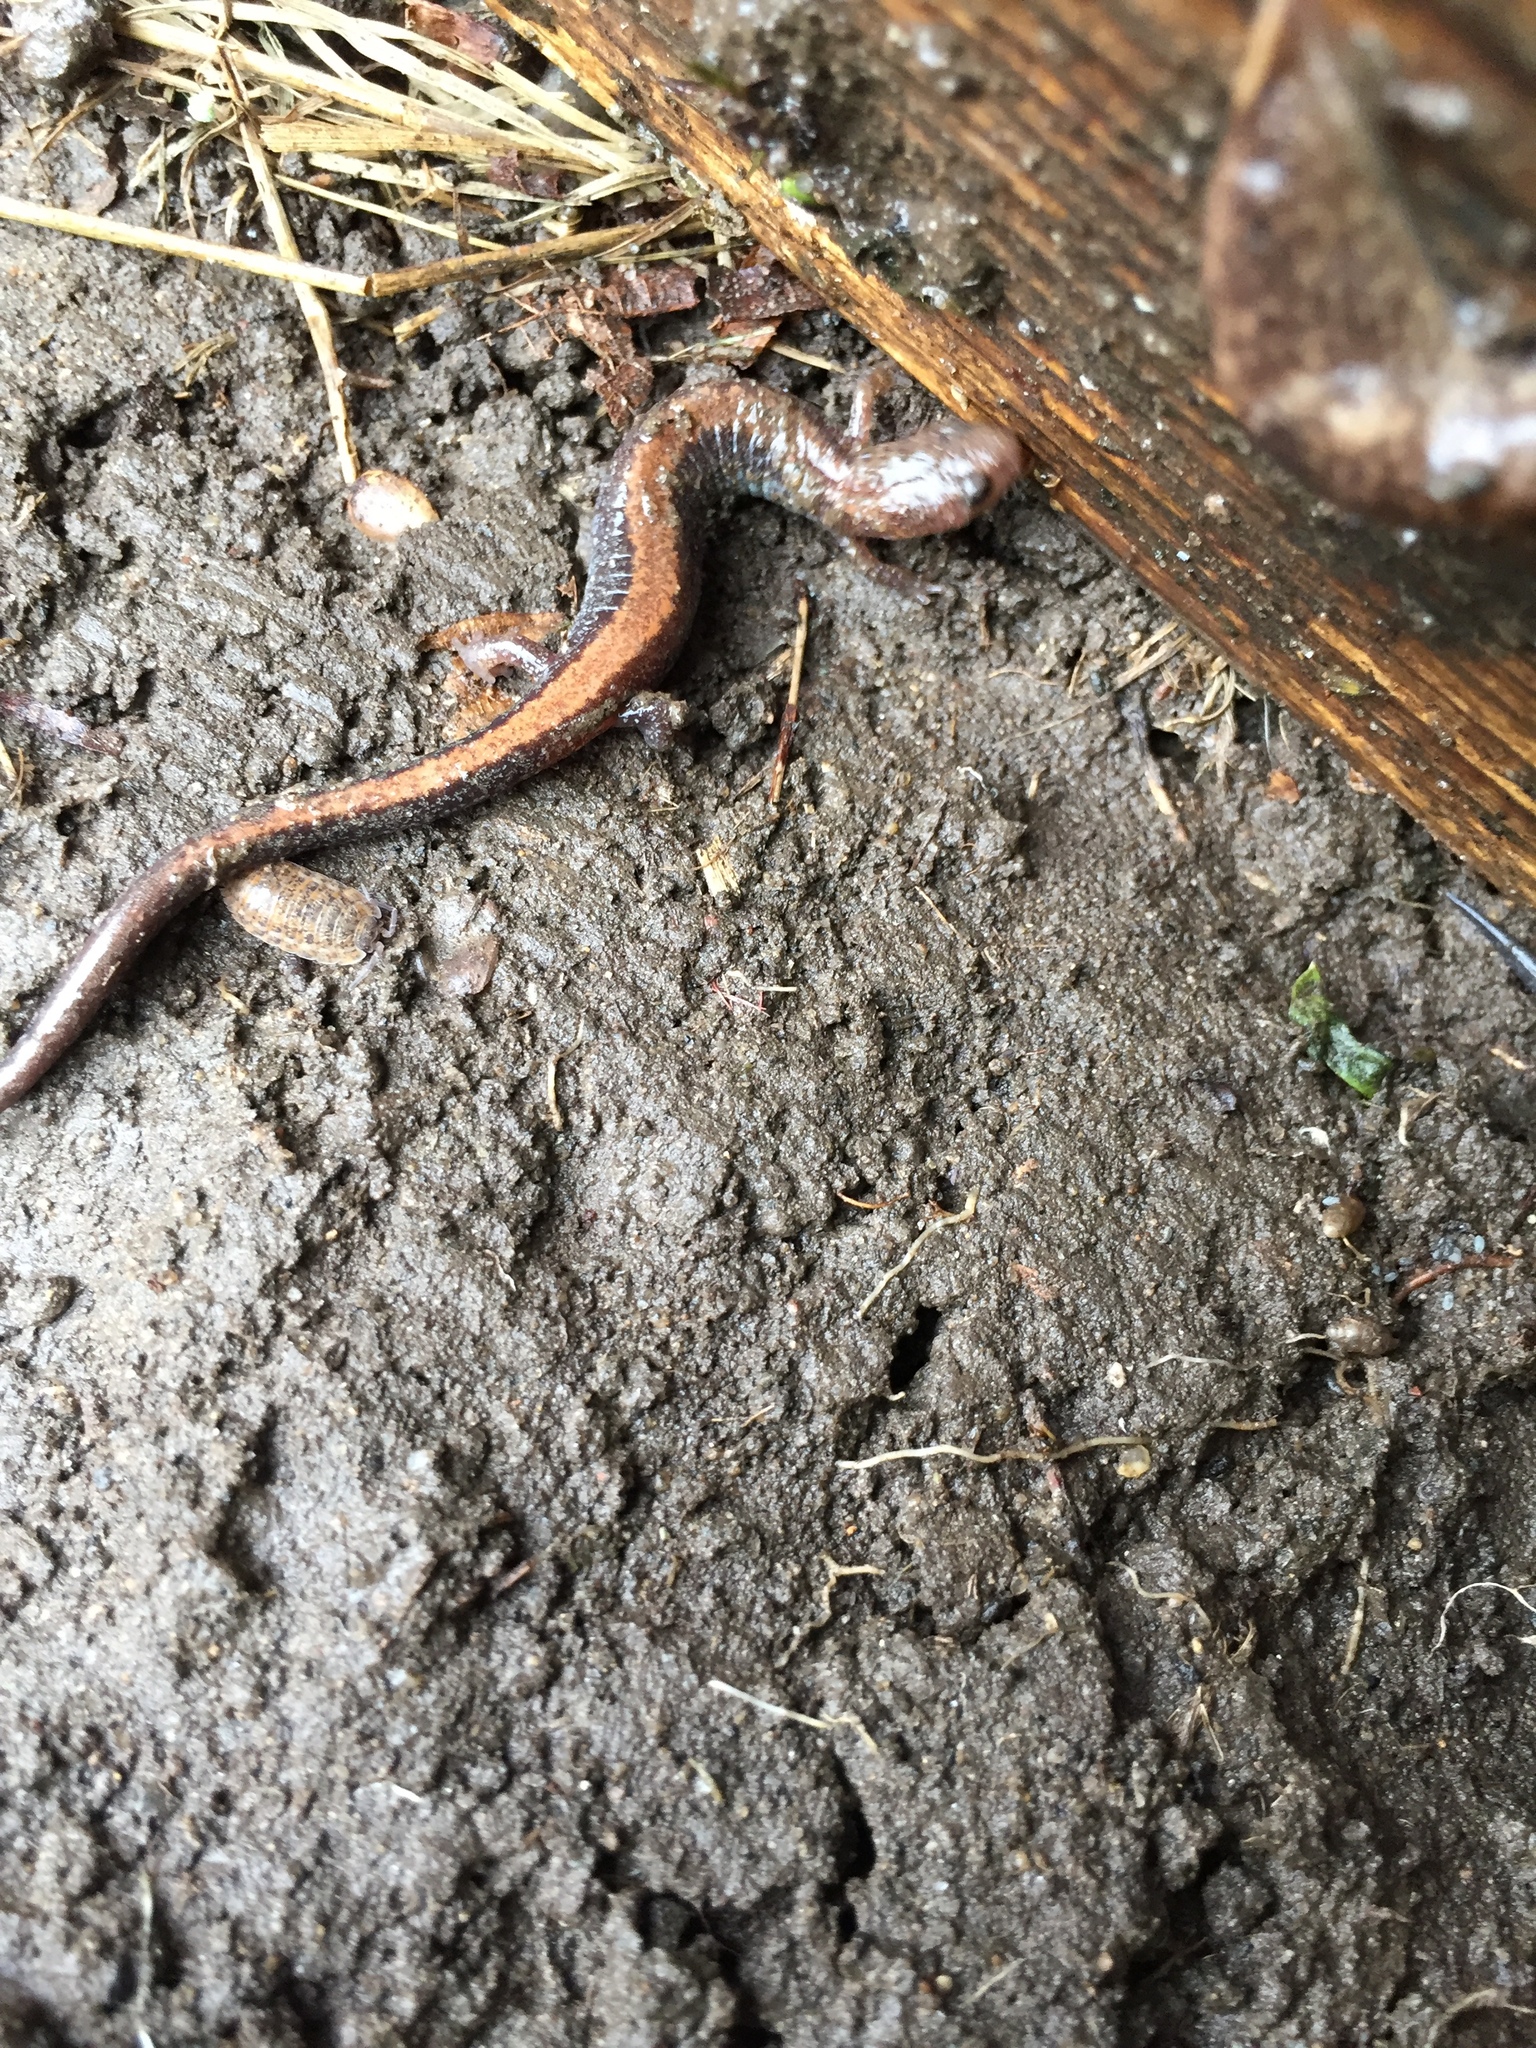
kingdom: Animalia
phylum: Chordata
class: Amphibia
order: Caudata
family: Plethodontidae
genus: Plethodon
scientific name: Plethodon cinereus
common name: Redback salamander
